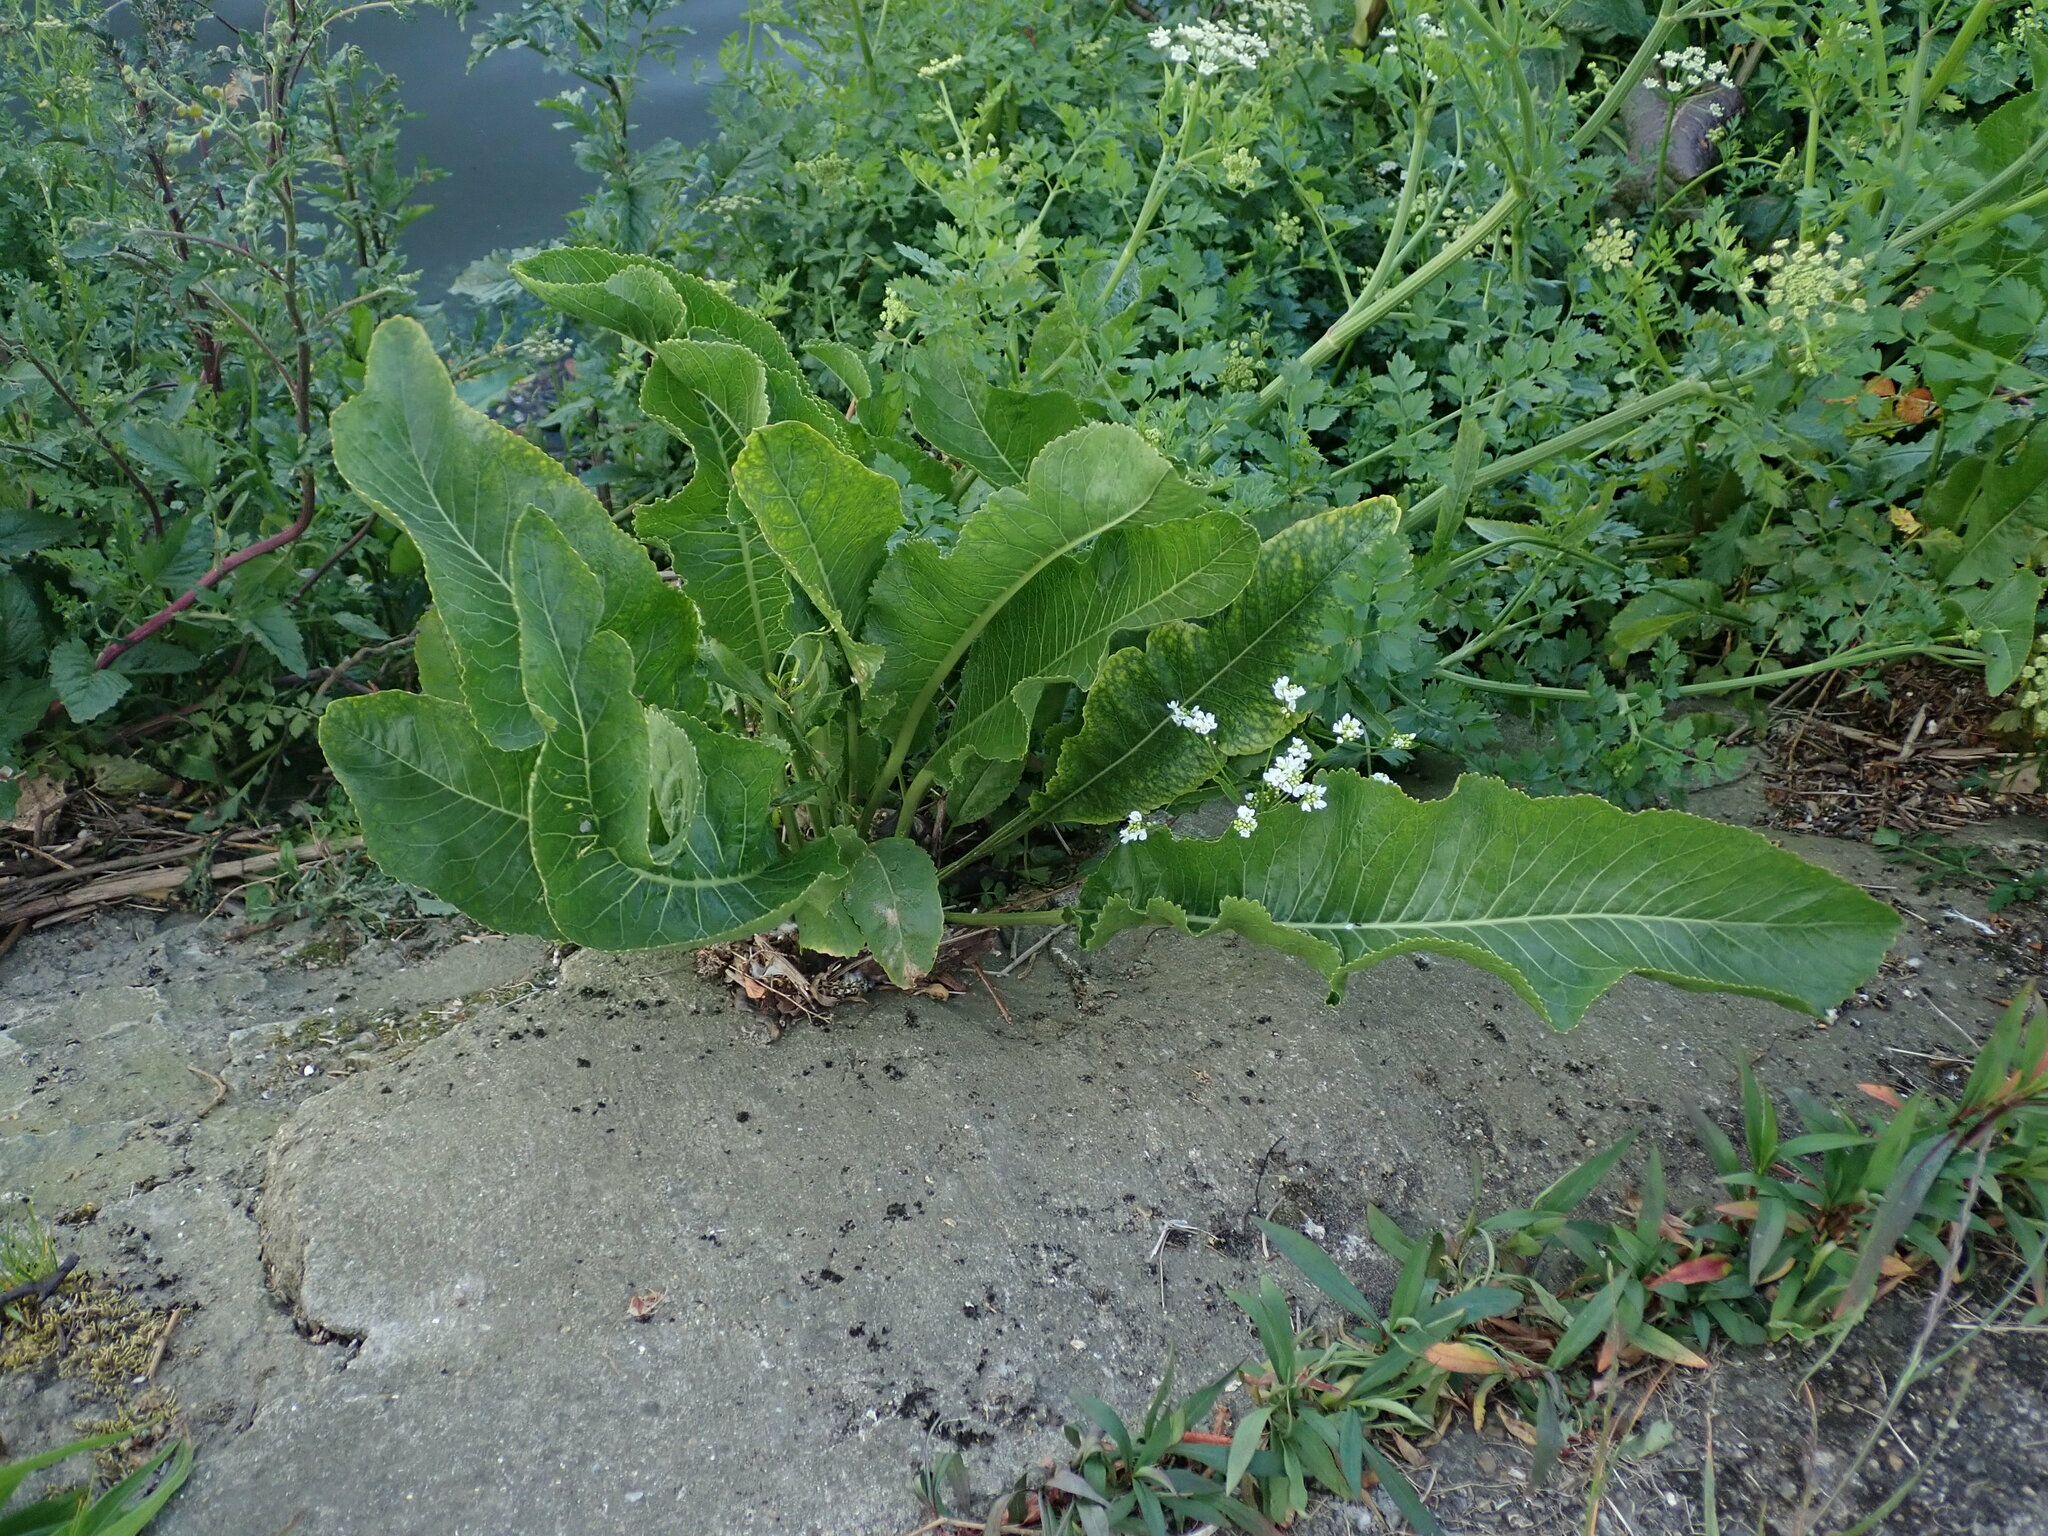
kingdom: Plantae
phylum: Tracheophyta
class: Magnoliopsida
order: Brassicales
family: Brassicaceae
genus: Armoracia
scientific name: Armoracia rusticana
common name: Horseradish
